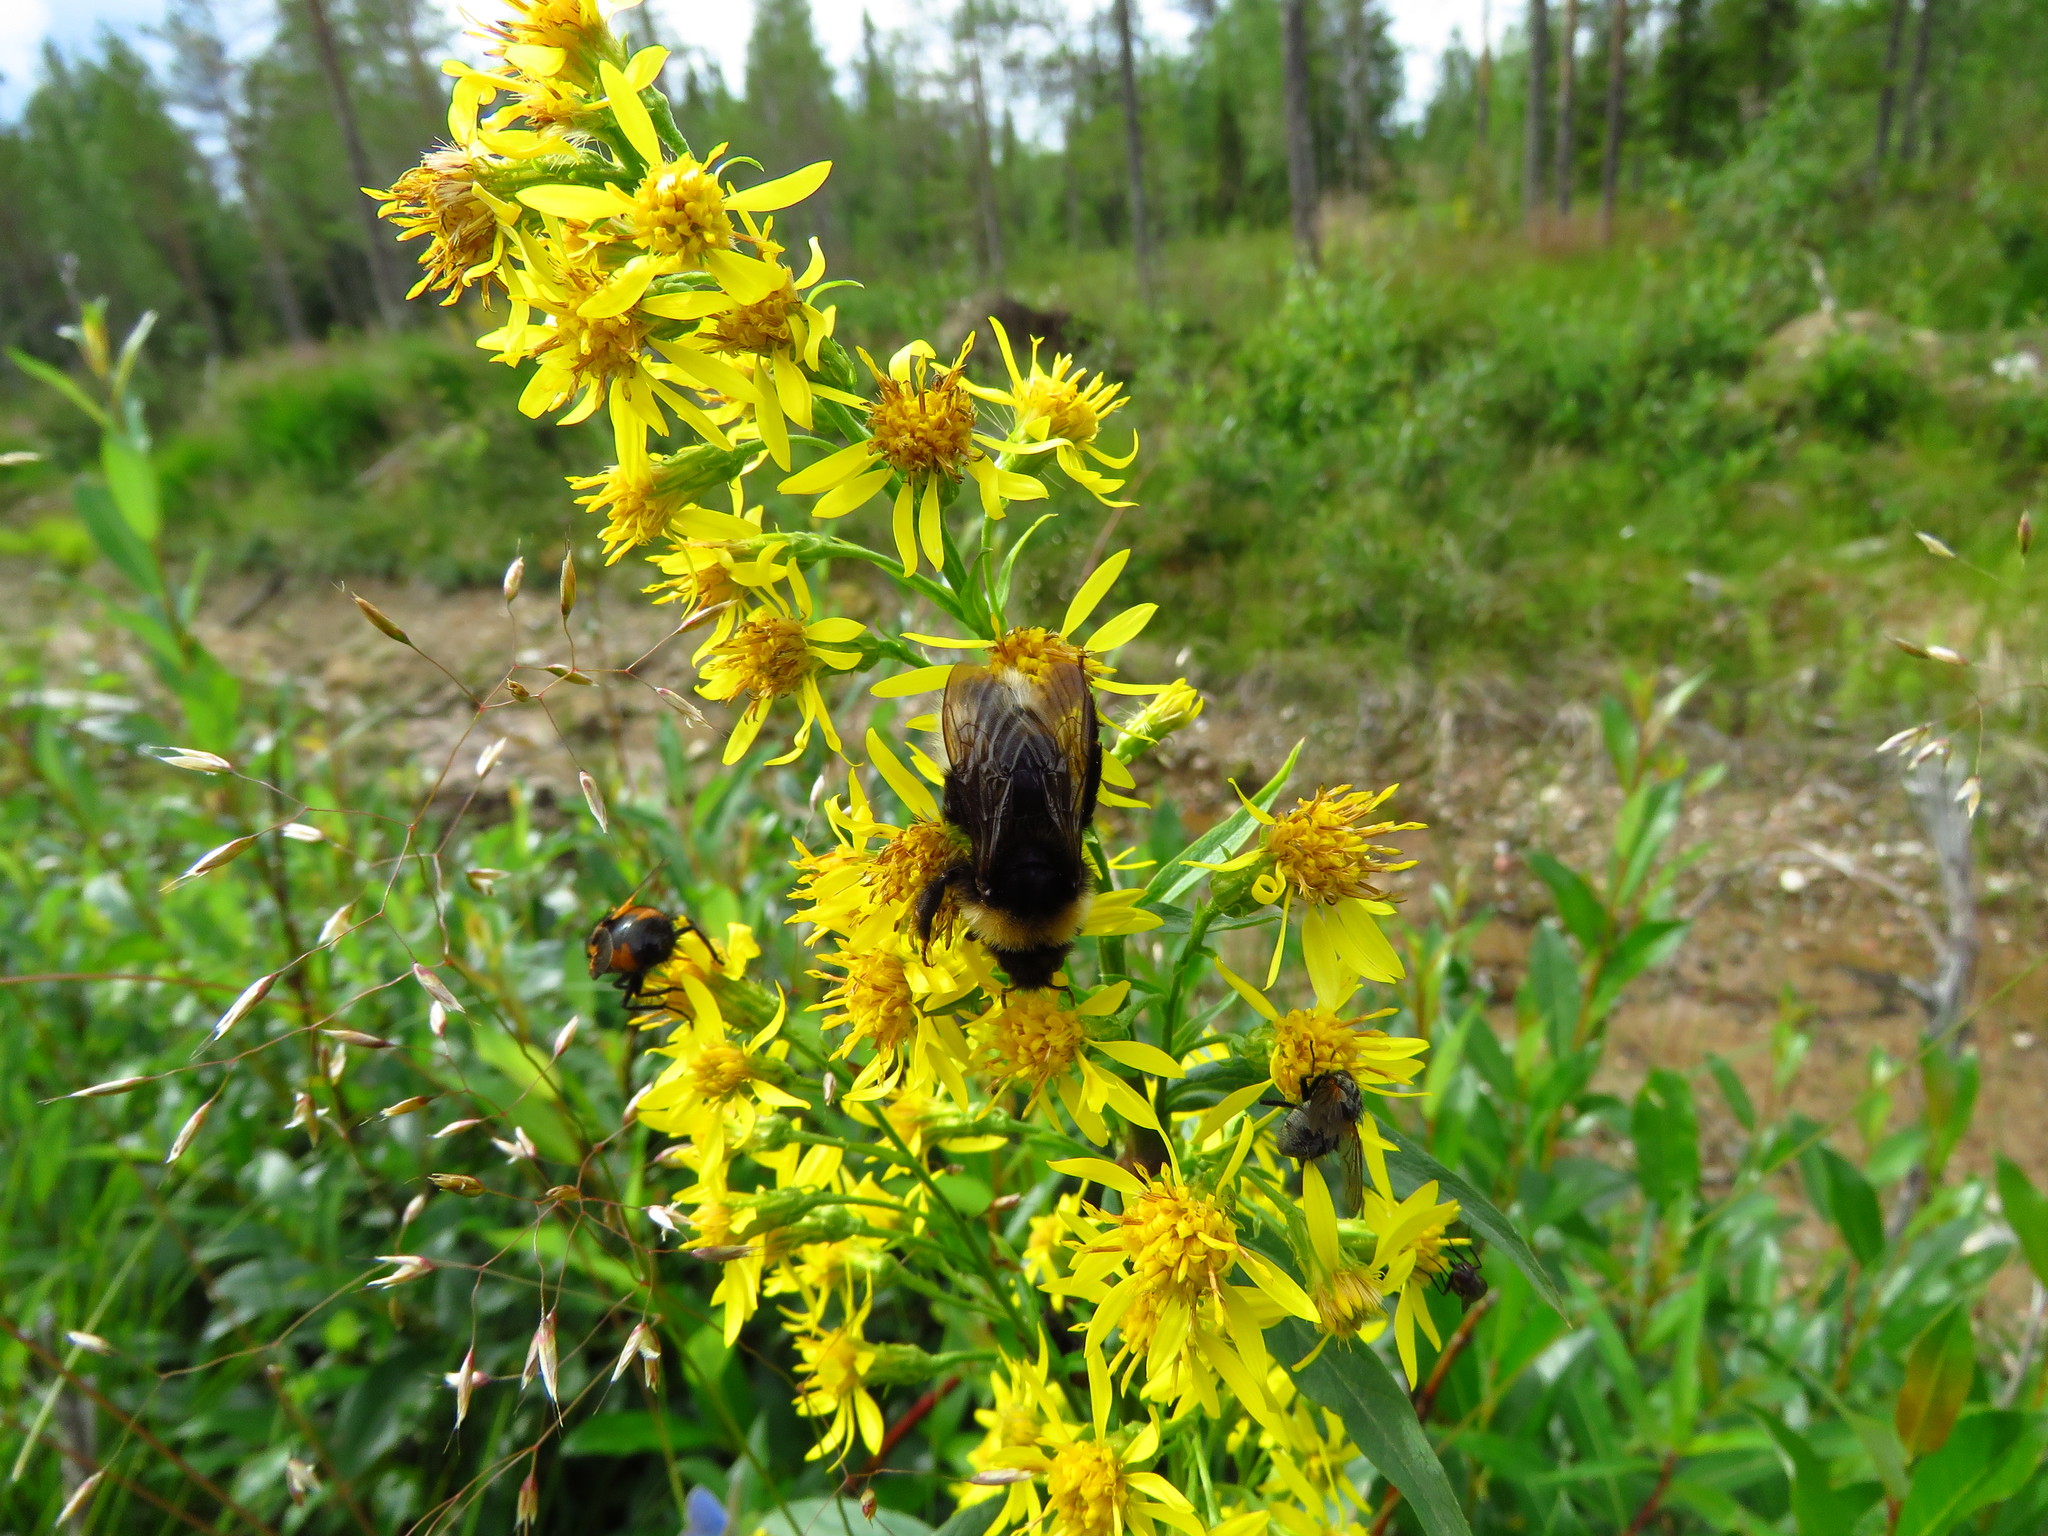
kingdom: Plantae
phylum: Tracheophyta
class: Magnoliopsida
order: Asterales
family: Asteraceae
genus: Solidago
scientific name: Solidago virgaurea
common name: Goldenrod
